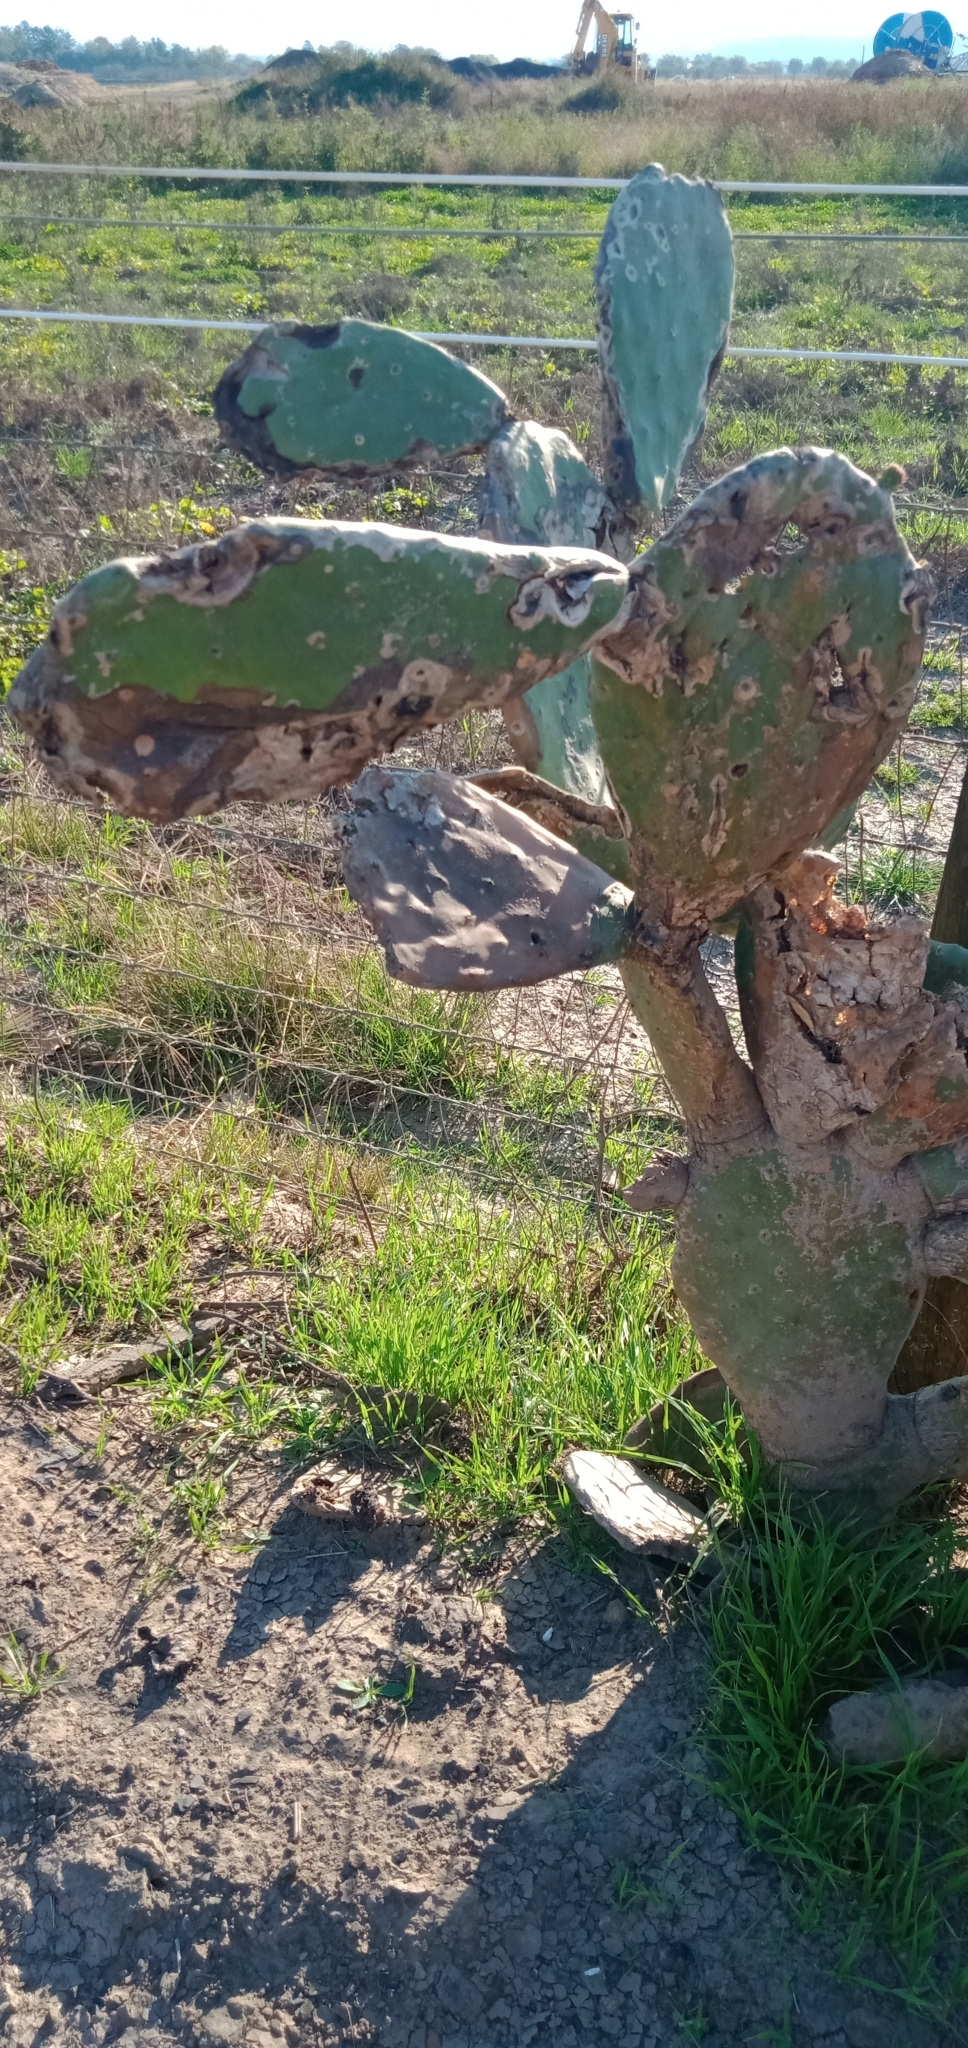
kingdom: Plantae
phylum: Tracheophyta
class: Magnoliopsida
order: Caryophyllales
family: Cactaceae
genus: Opuntia
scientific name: Opuntia ficus-indica
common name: Barbary fig
